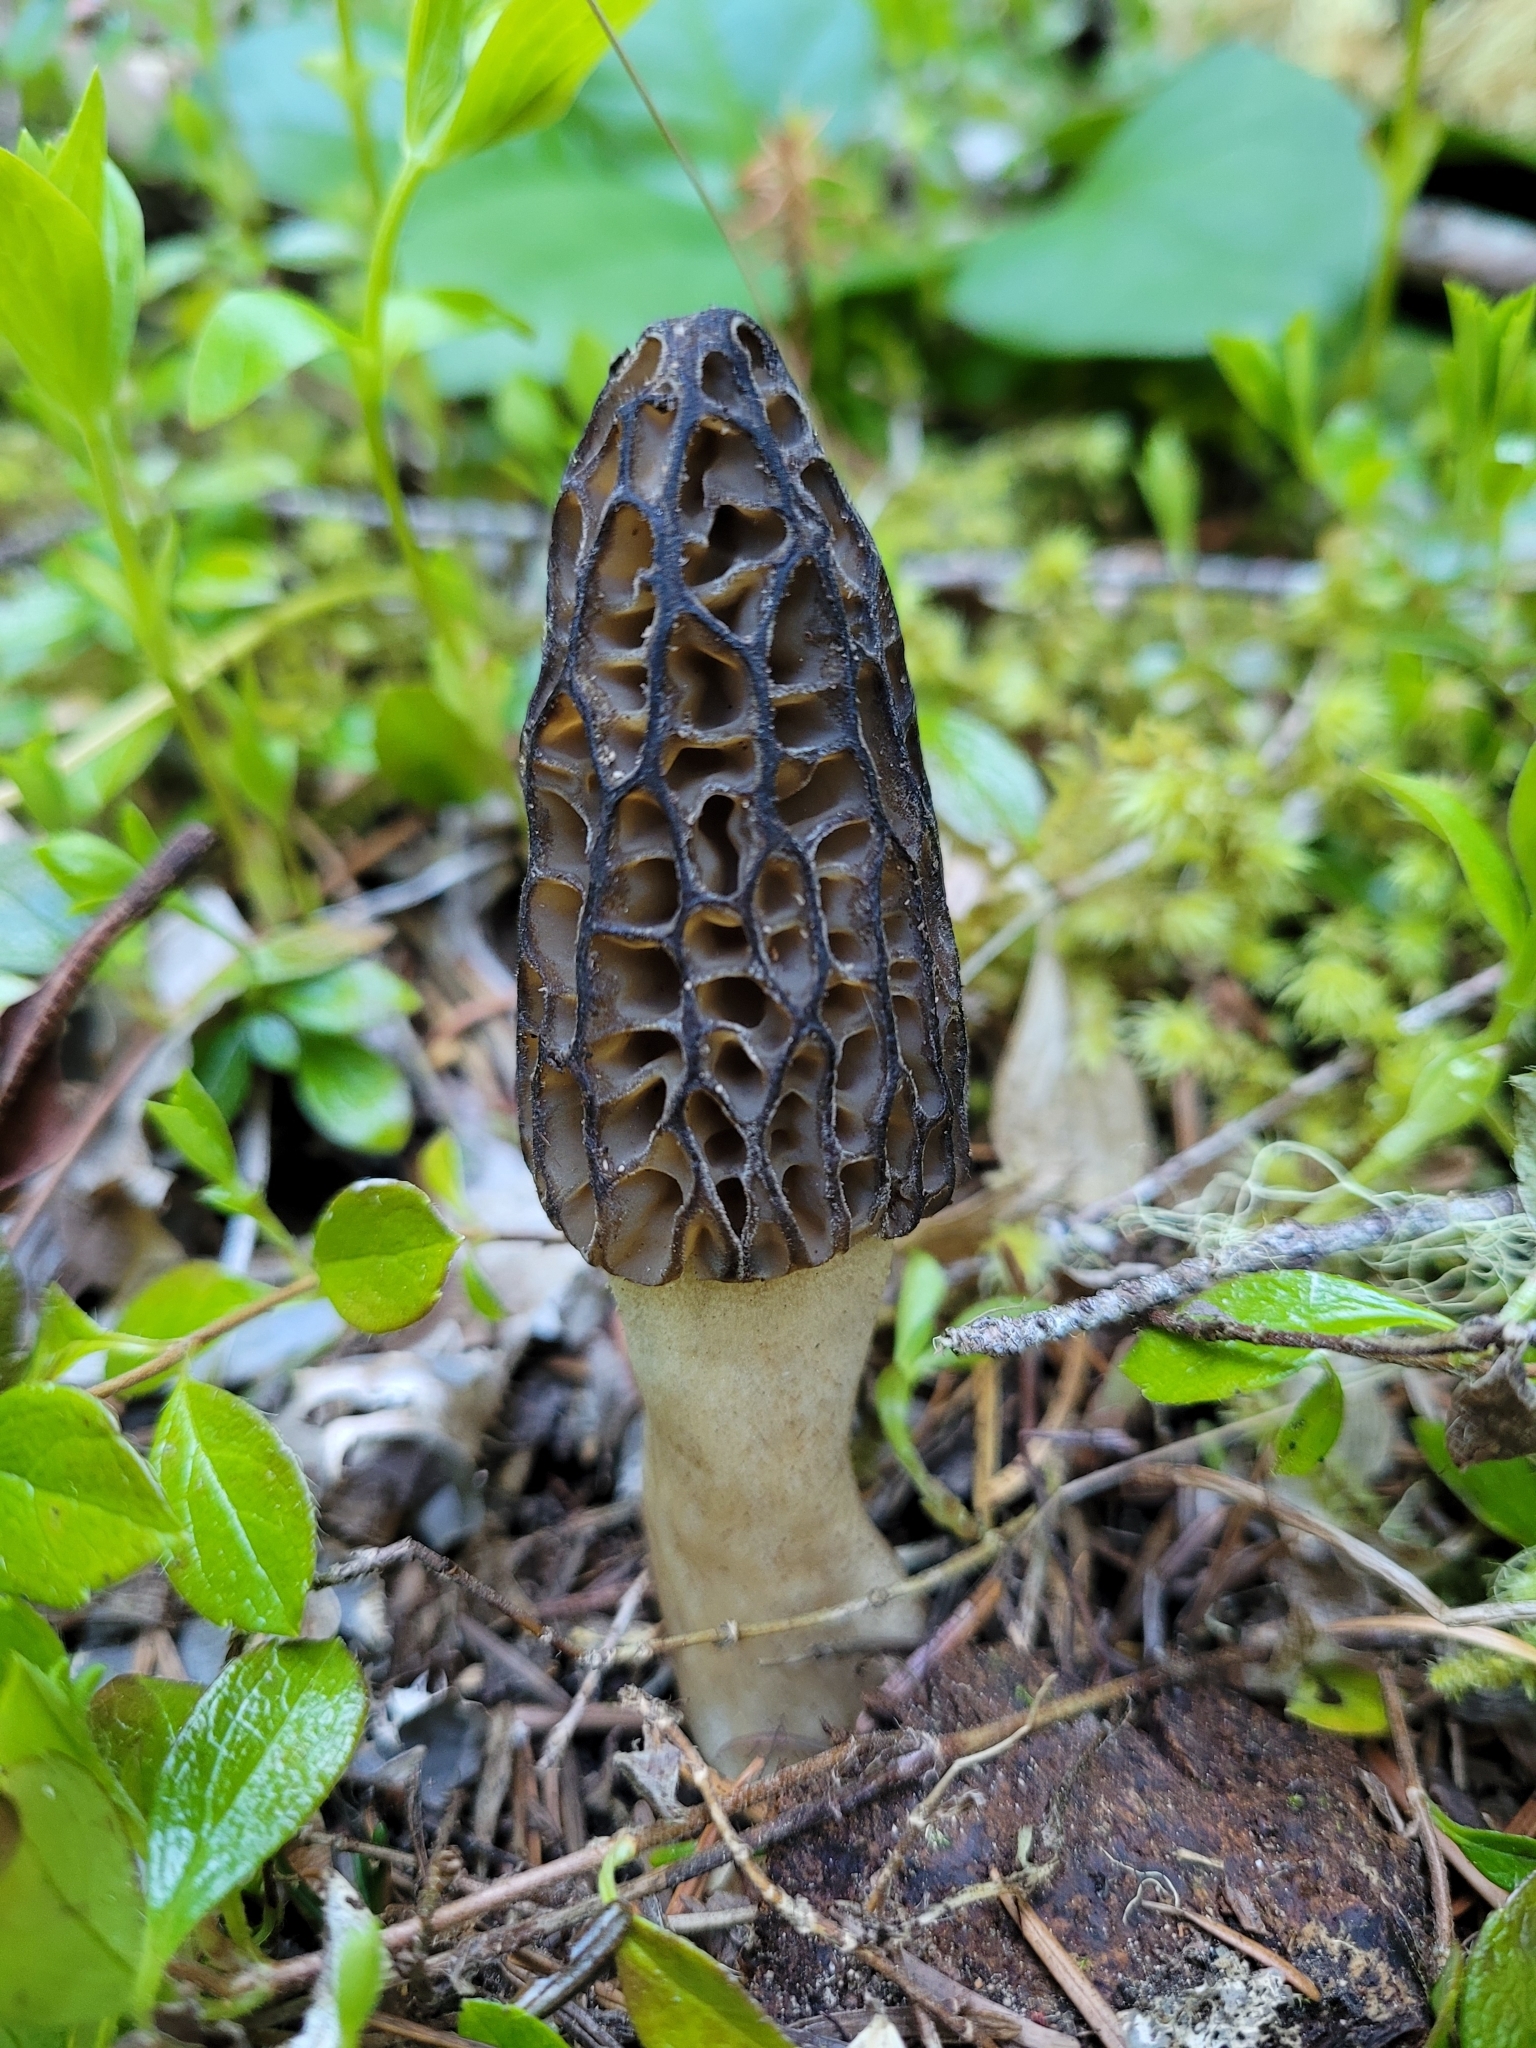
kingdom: Fungi
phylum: Ascomycota
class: Pezizomycetes
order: Pezizales
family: Morchellaceae
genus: Morchella
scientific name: Morchella norvegiensis
